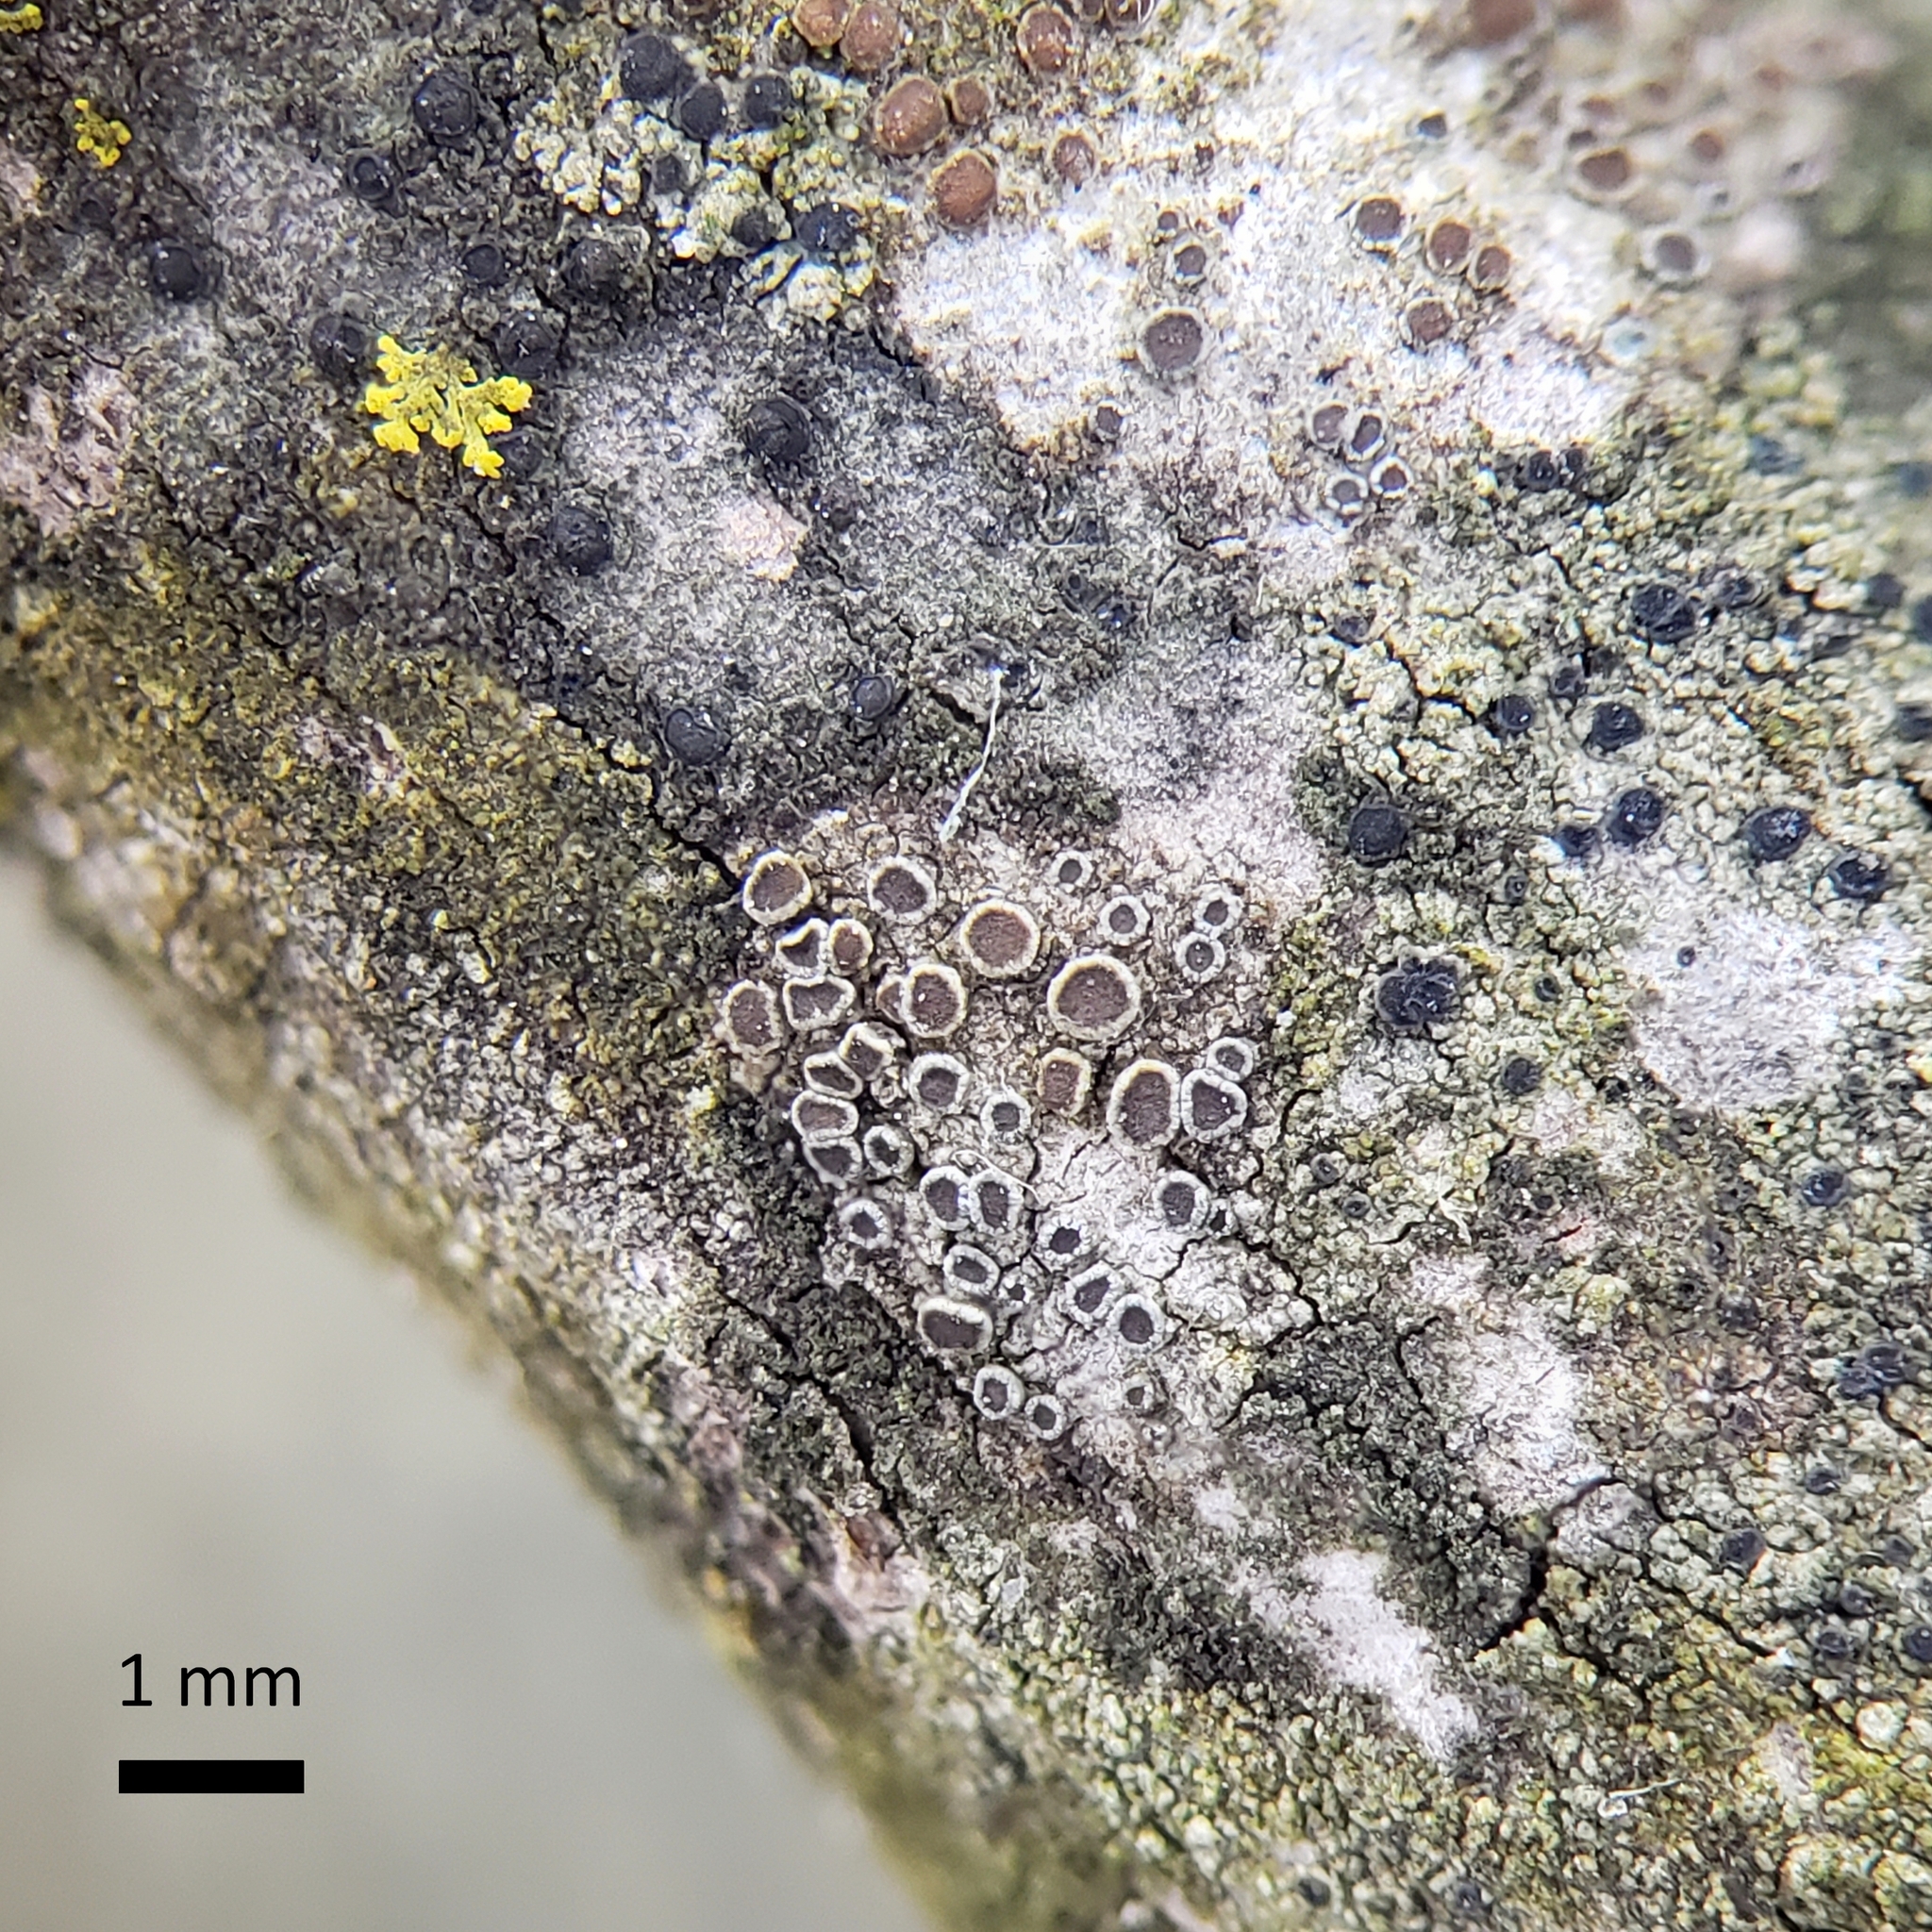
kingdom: Fungi
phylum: Ascomycota
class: Lecanoromycetes
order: Lecanorales
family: Lecanoraceae
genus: Polyozosia
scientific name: Polyozosia sambuci
